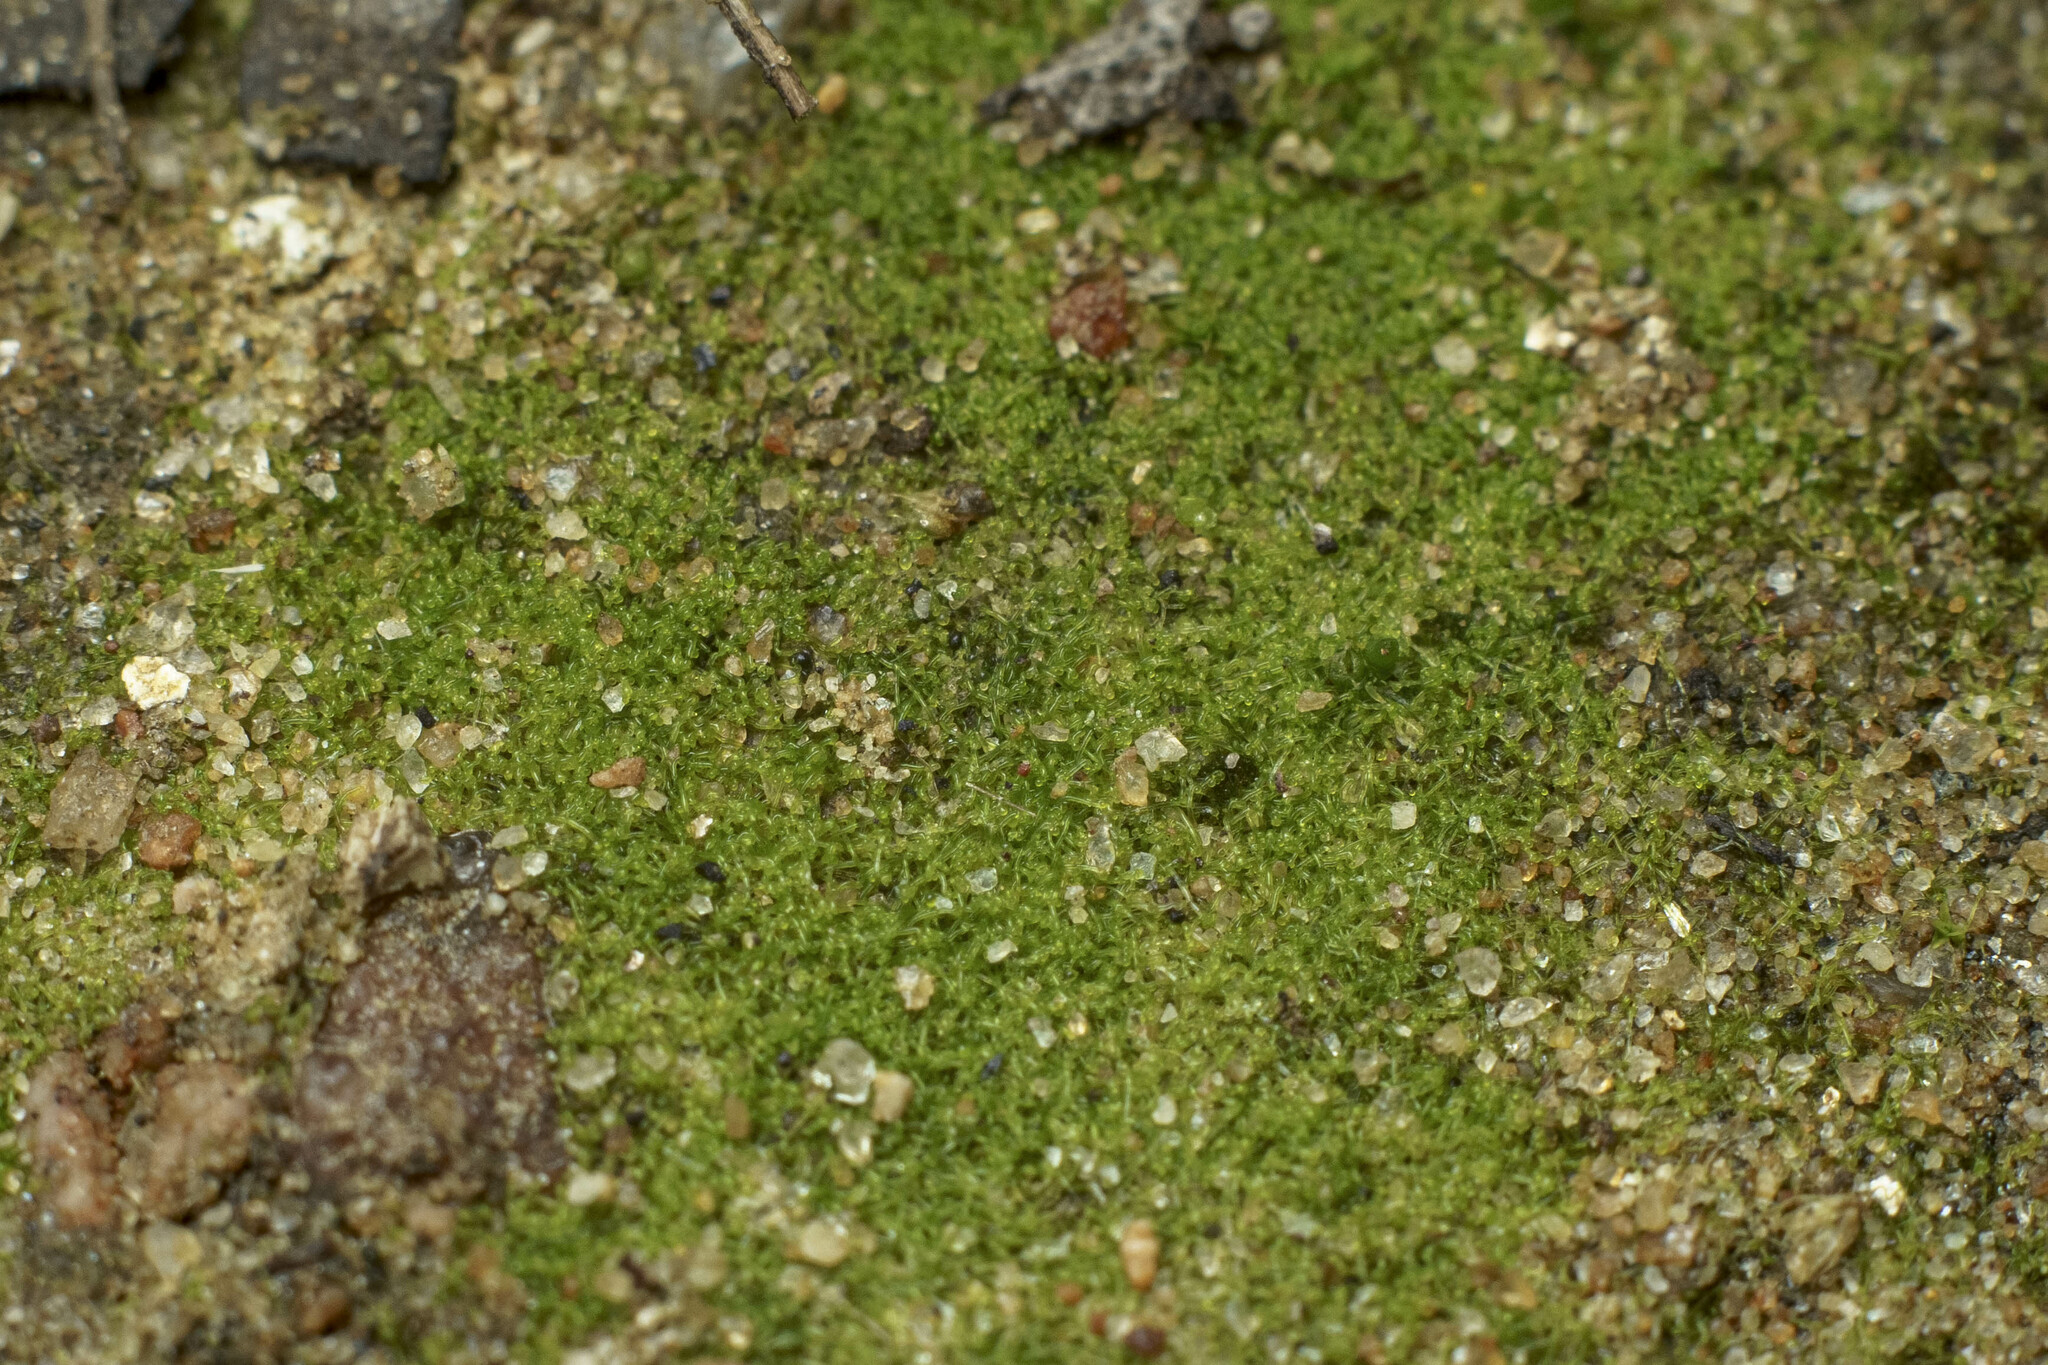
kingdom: Chromista
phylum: Ochrophyta
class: Xanthophyceae
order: Vaucheriales
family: Vaucheriaceae
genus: Vaucheria
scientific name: Vaucheria
